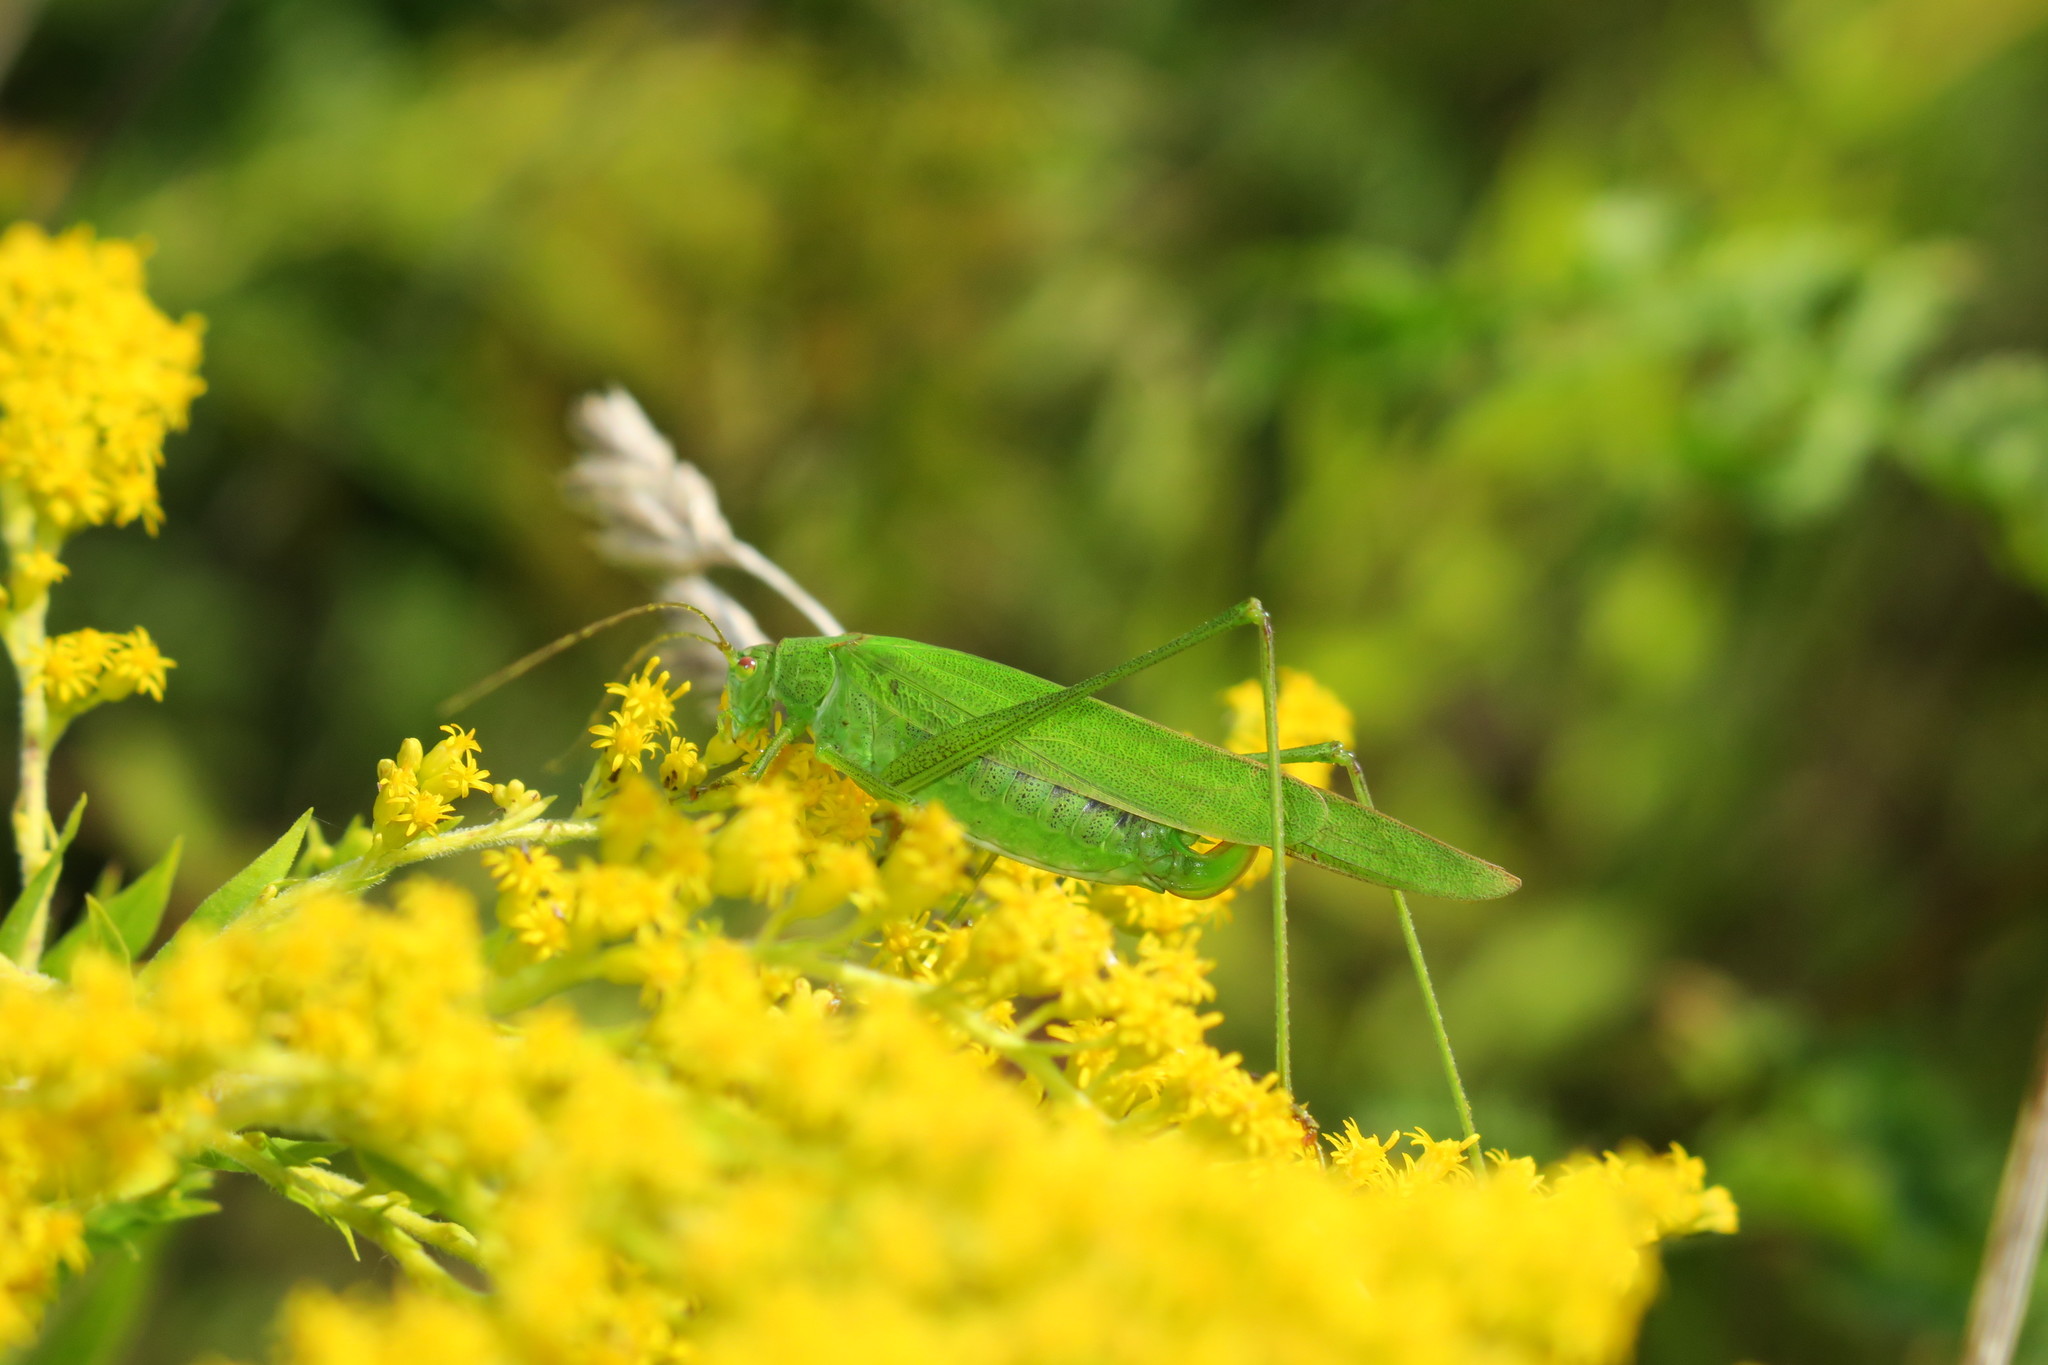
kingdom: Animalia
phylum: Arthropoda
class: Insecta
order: Orthoptera
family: Tettigoniidae
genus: Phaneroptera
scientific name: Phaneroptera falcata
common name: Sickle-bearing bush-cricket
